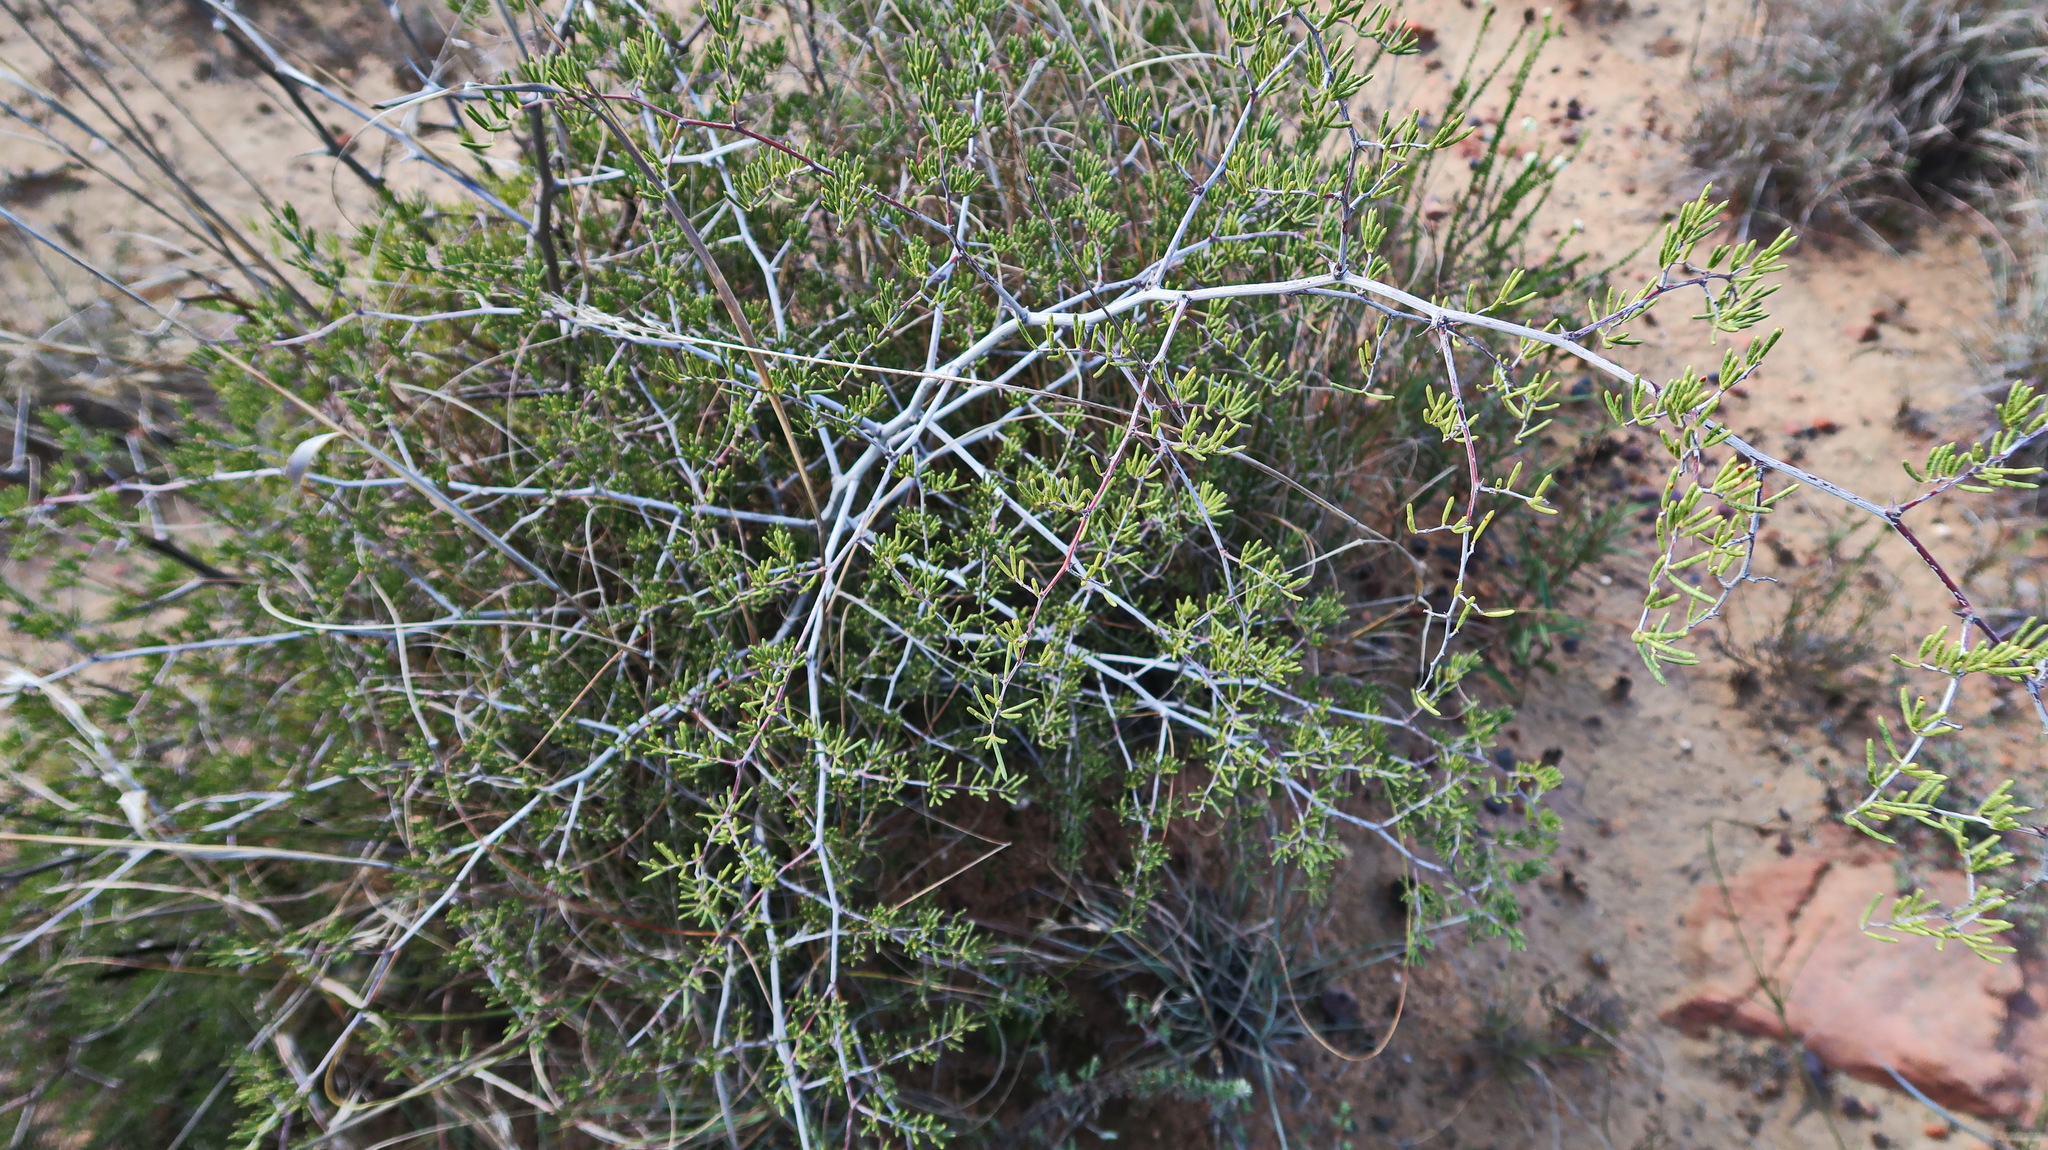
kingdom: Plantae
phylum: Tracheophyta
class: Liliopsida
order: Asparagales
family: Asparagaceae
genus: Asparagus
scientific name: Asparagus lignosus
